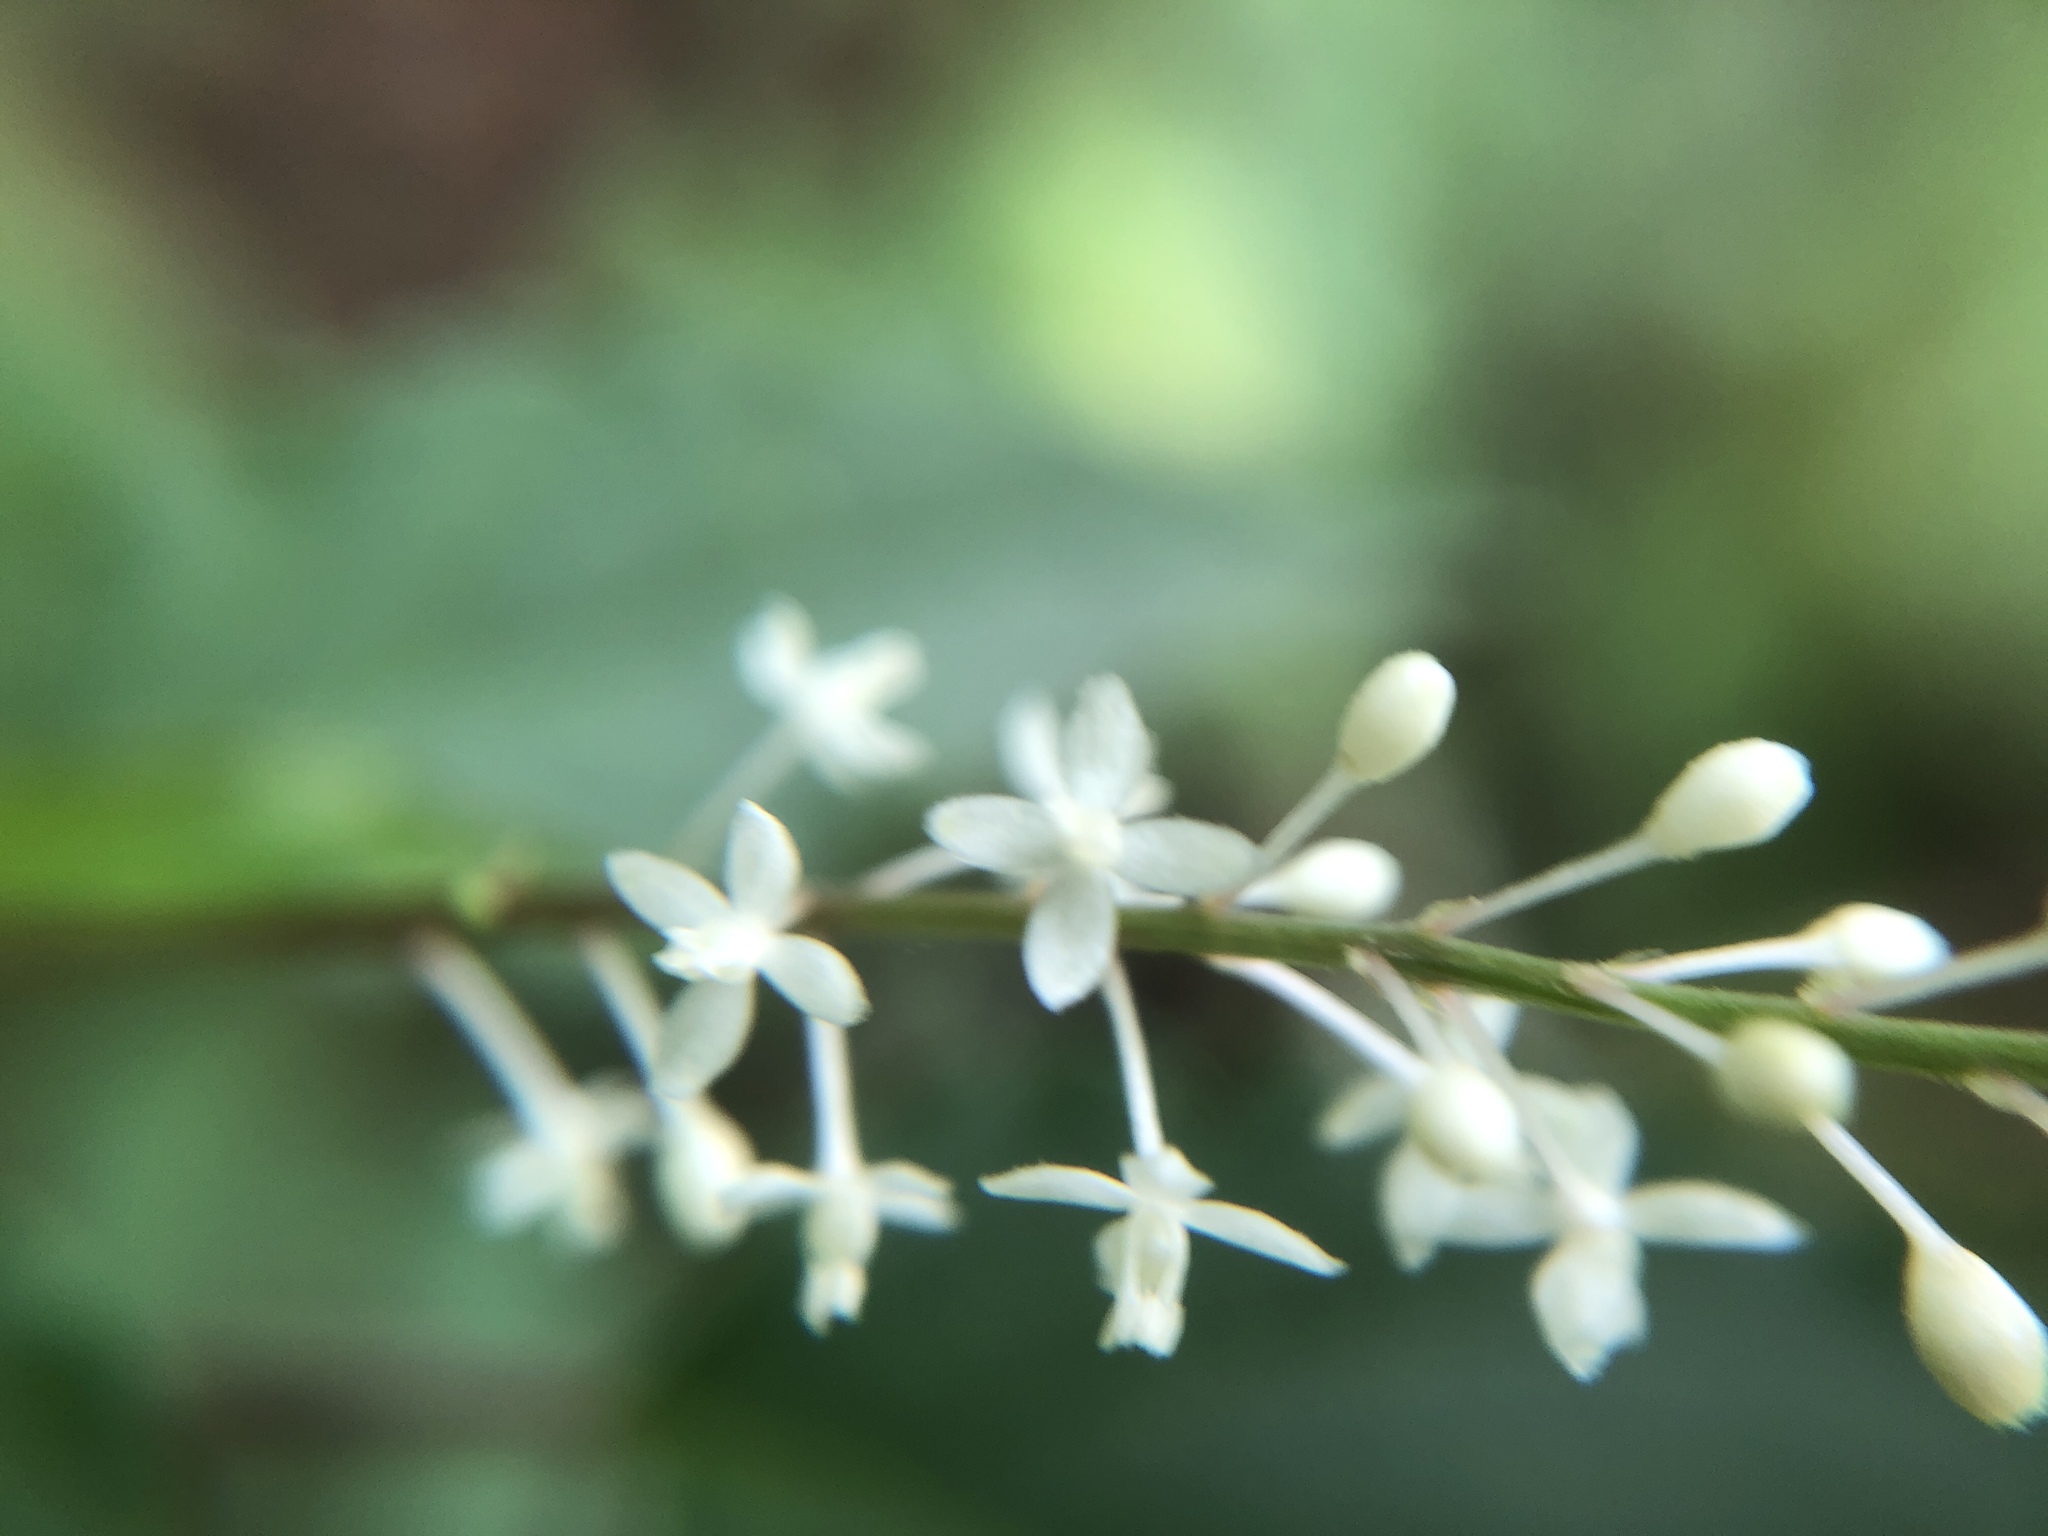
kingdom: Plantae
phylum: Tracheophyta
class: Magnoliopsida
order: Caryophyllales
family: Phytolaccaceae
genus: Rivina
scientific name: Rivina humilis
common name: Rougeplant
